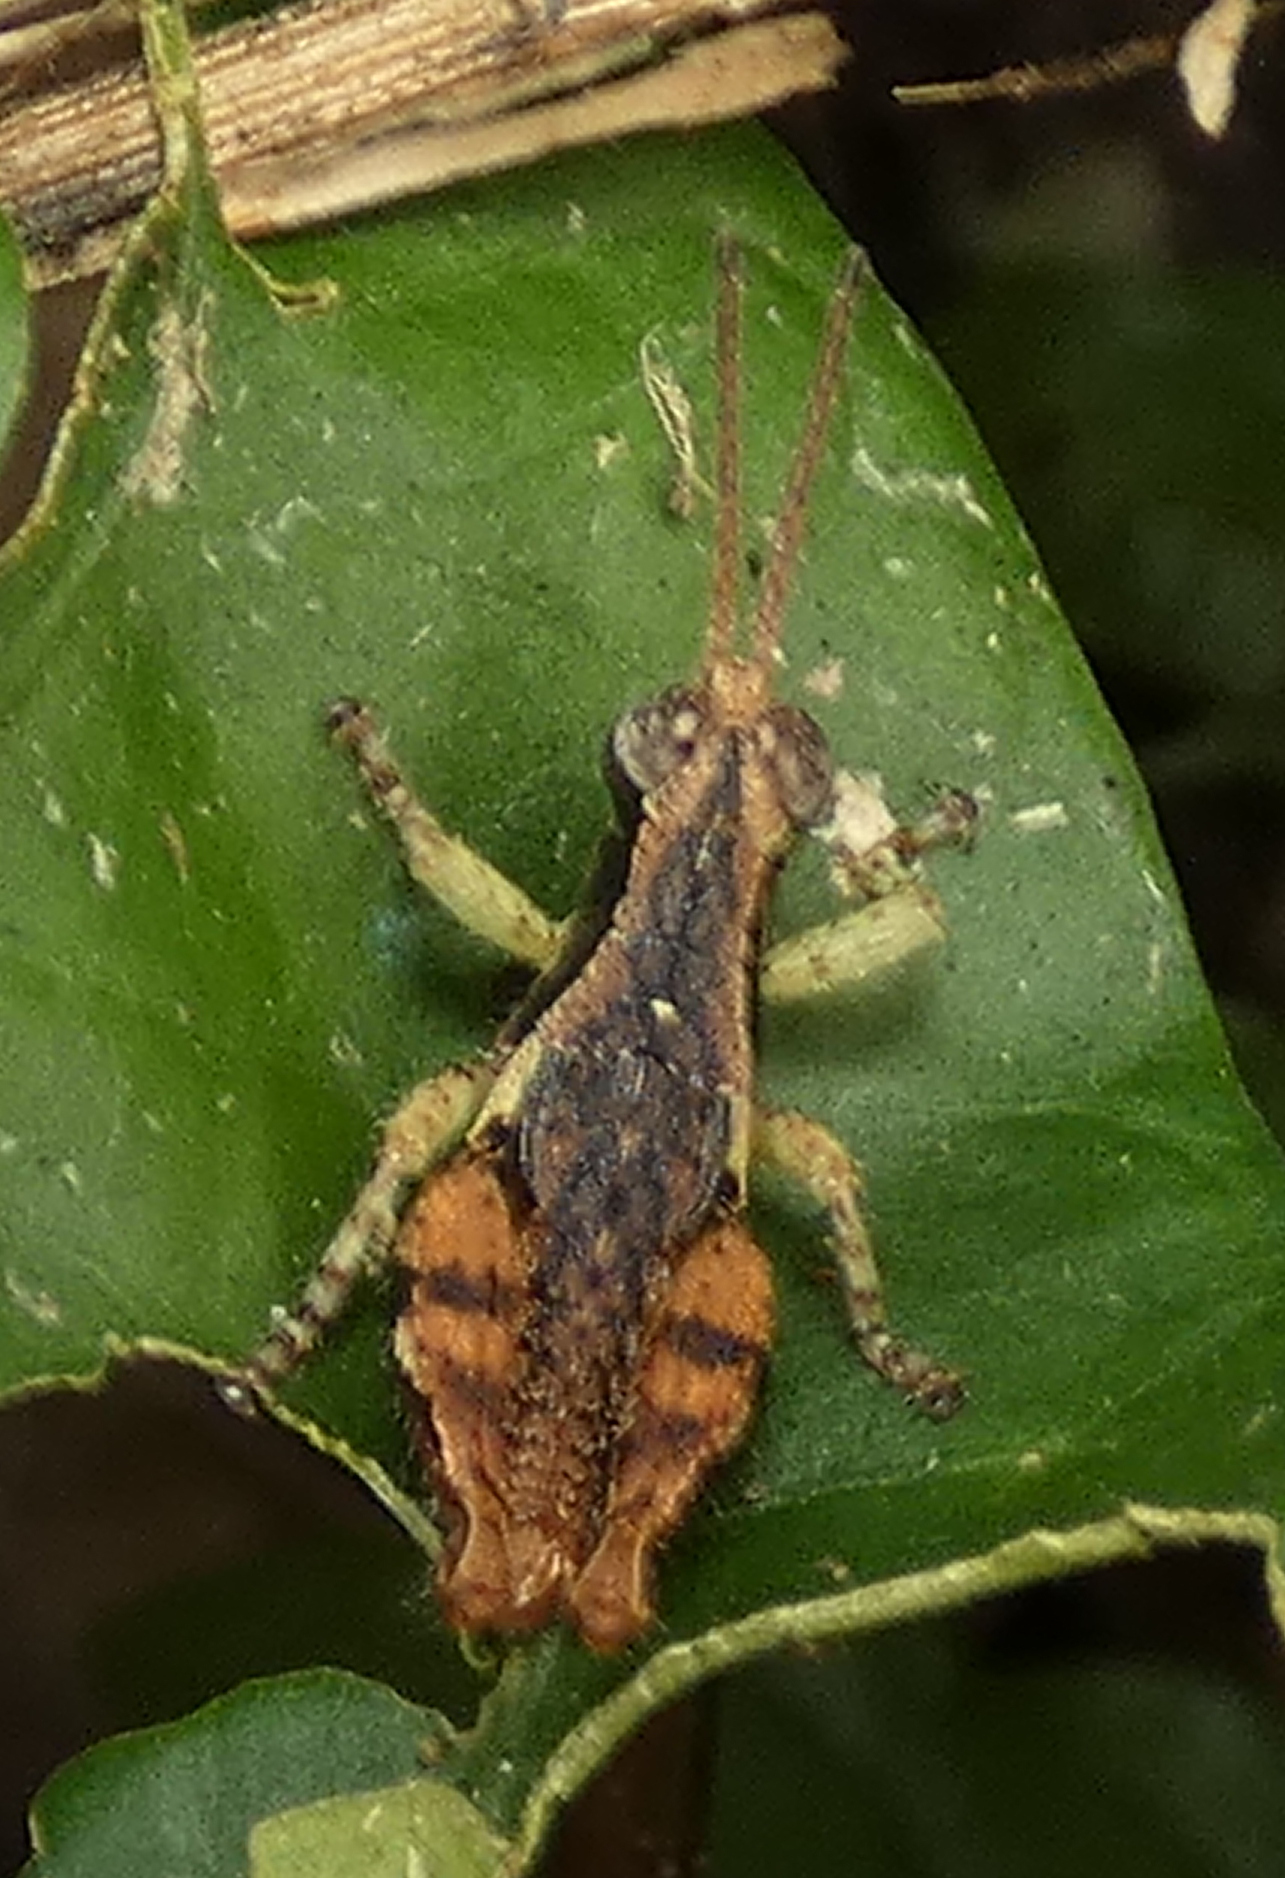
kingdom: Animalia
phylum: Arthropoda
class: Insecta
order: Orthoptera
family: Acrididae
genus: Eujivarus
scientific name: Eujivarus meridionalis
